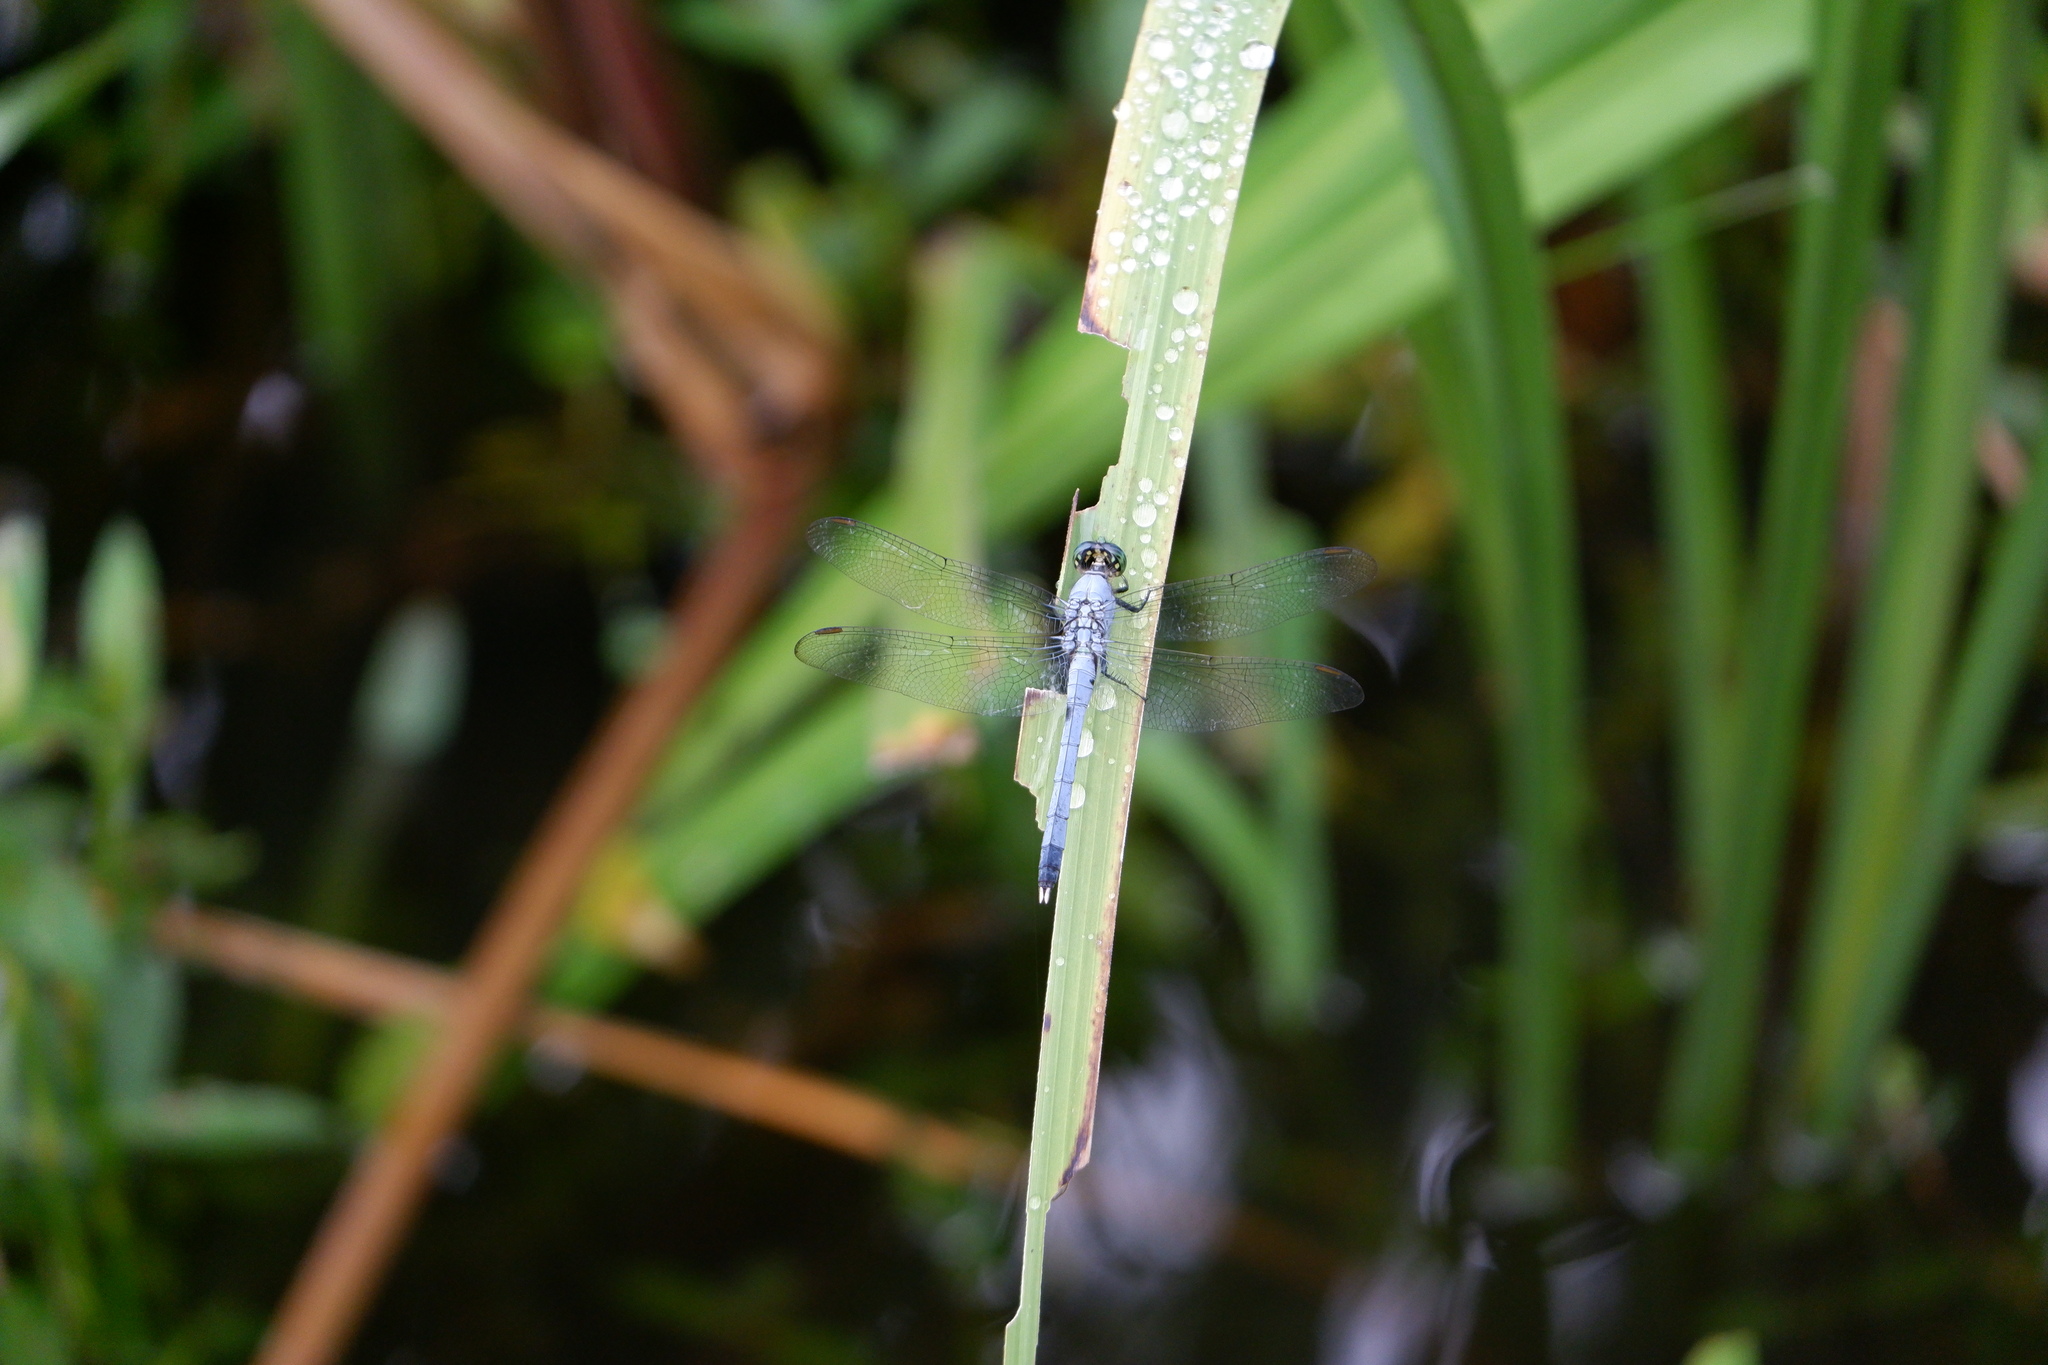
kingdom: Animalia
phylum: Arthropoda
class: Insecta
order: Odonata
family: Libellulidae
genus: Erythemis
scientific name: Erythemis simplicicollis
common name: Eastern pondhawk
